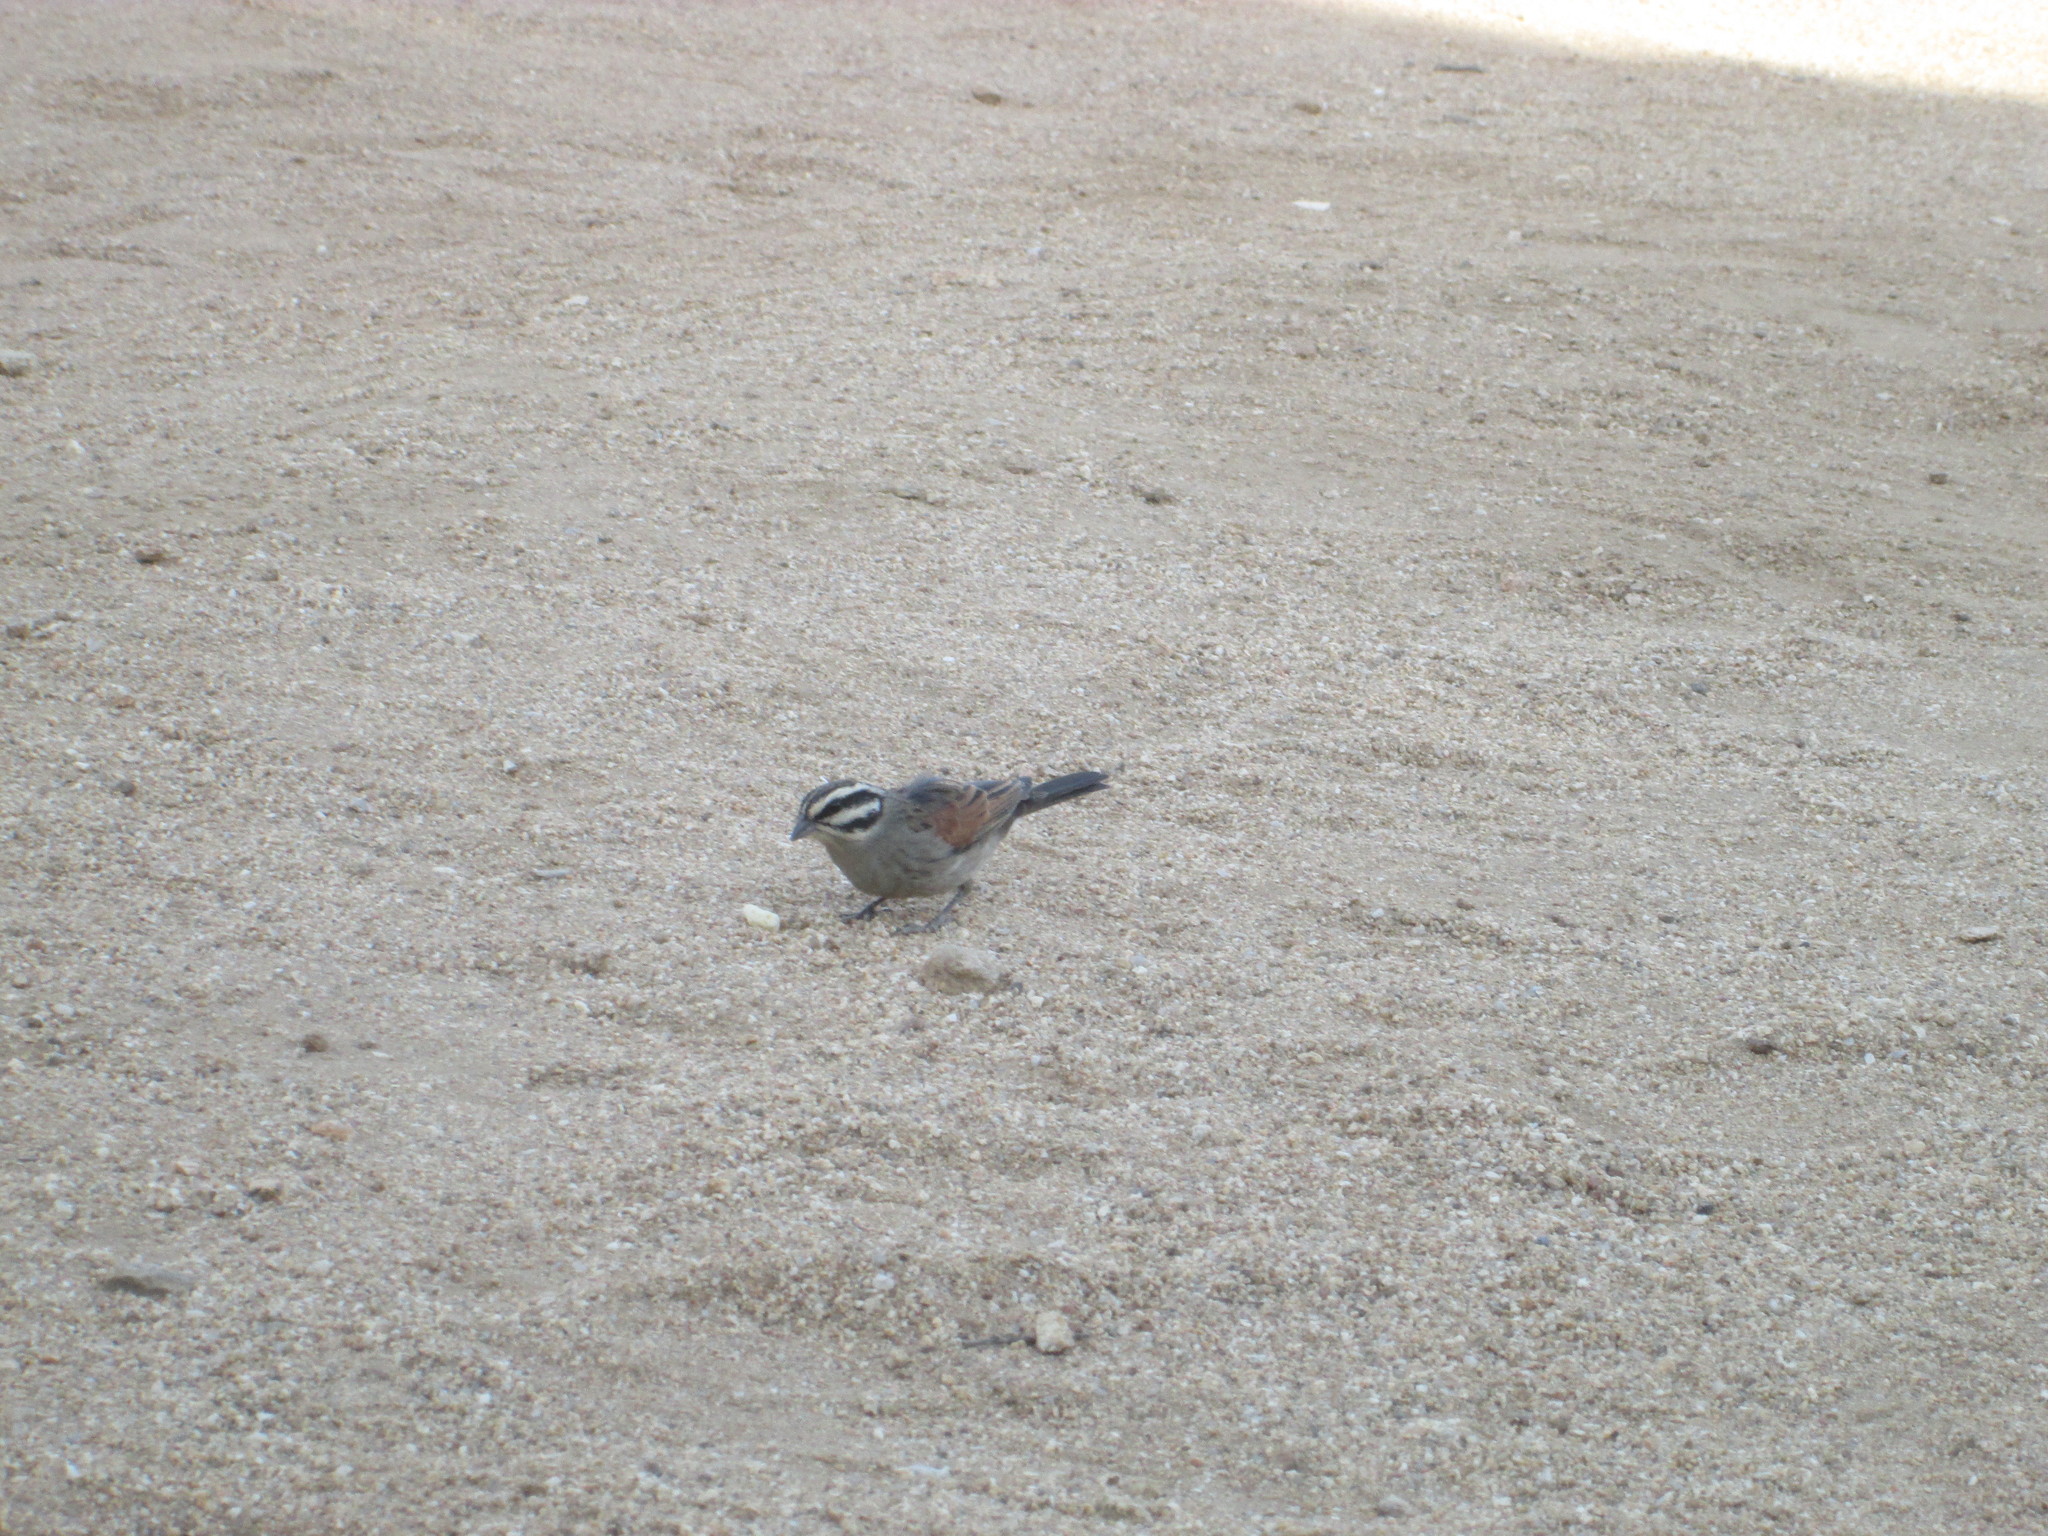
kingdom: Animalia
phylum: Chordata
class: Aves
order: Passeriformes
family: Emberizidae
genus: Emberiza
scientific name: Emberiza capensis
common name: Cape bunting
